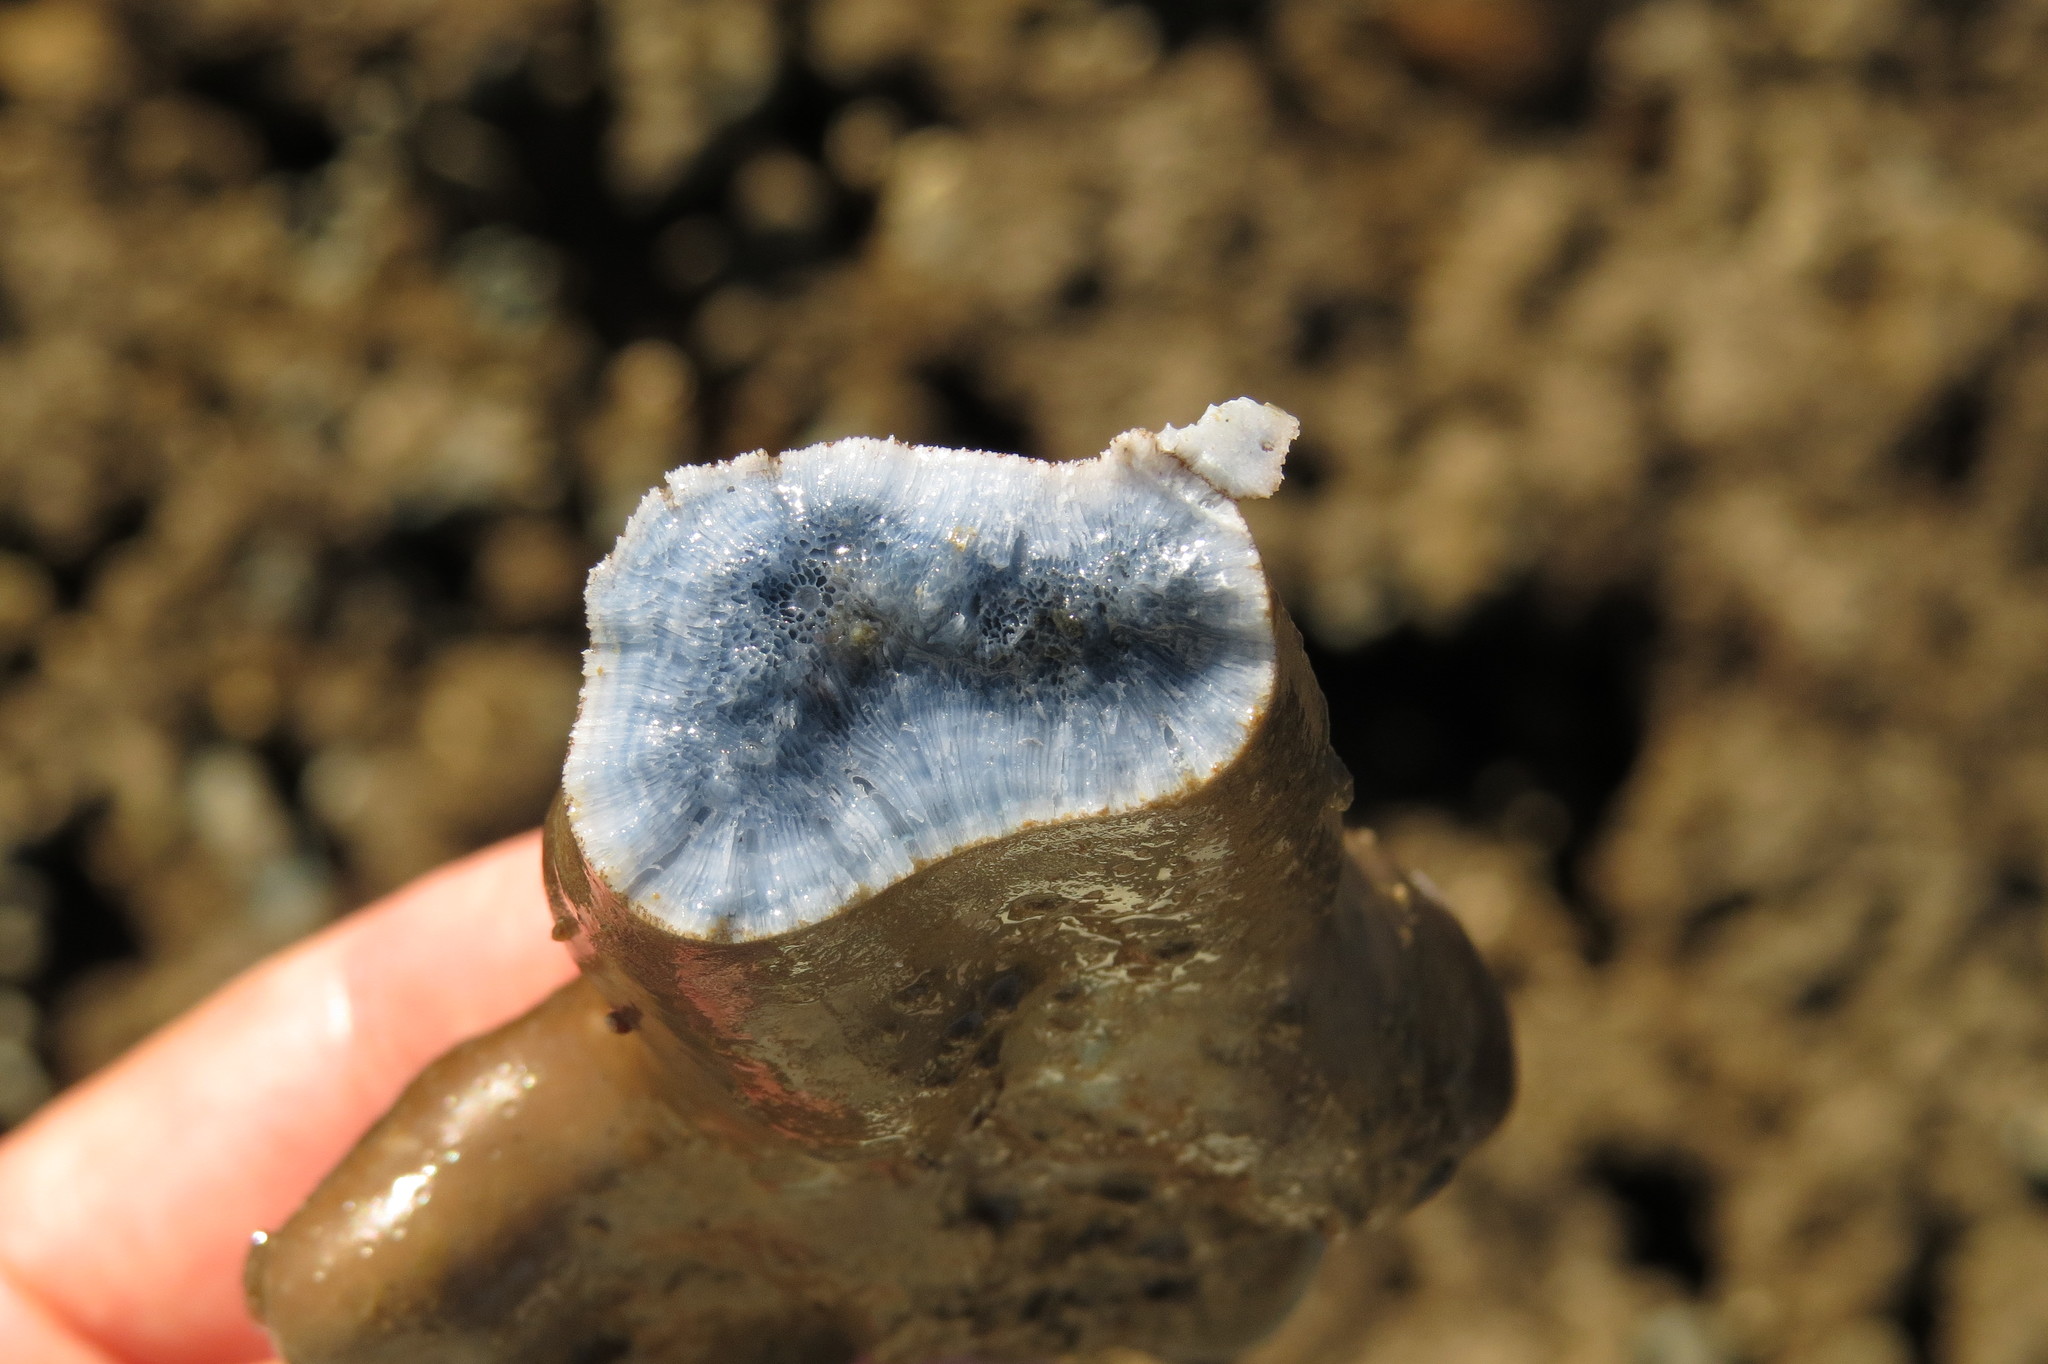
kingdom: Animalia
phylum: Cnidaria
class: Anthozoa
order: Scleralcyonacea
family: Helioporidae
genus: Heliopora
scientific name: Heliopora coerulea
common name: Blue coral
